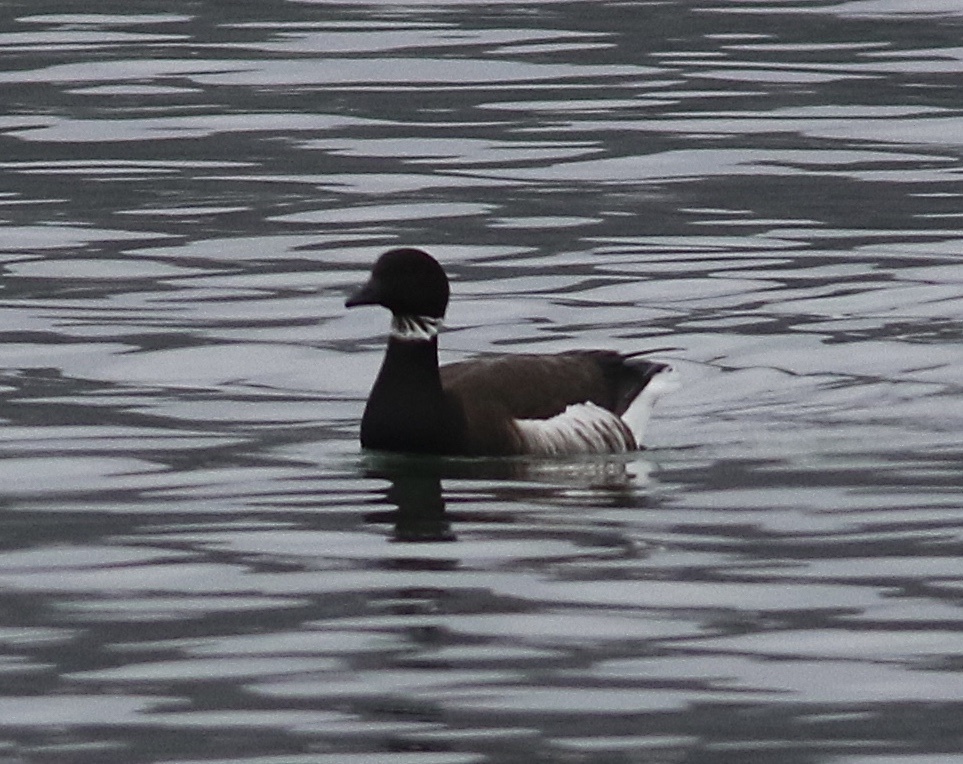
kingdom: Animalia
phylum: Chordata
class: Aves
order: Anseriformes
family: Anatidae
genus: Branta
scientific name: Branta bernicla
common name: Brant goose
